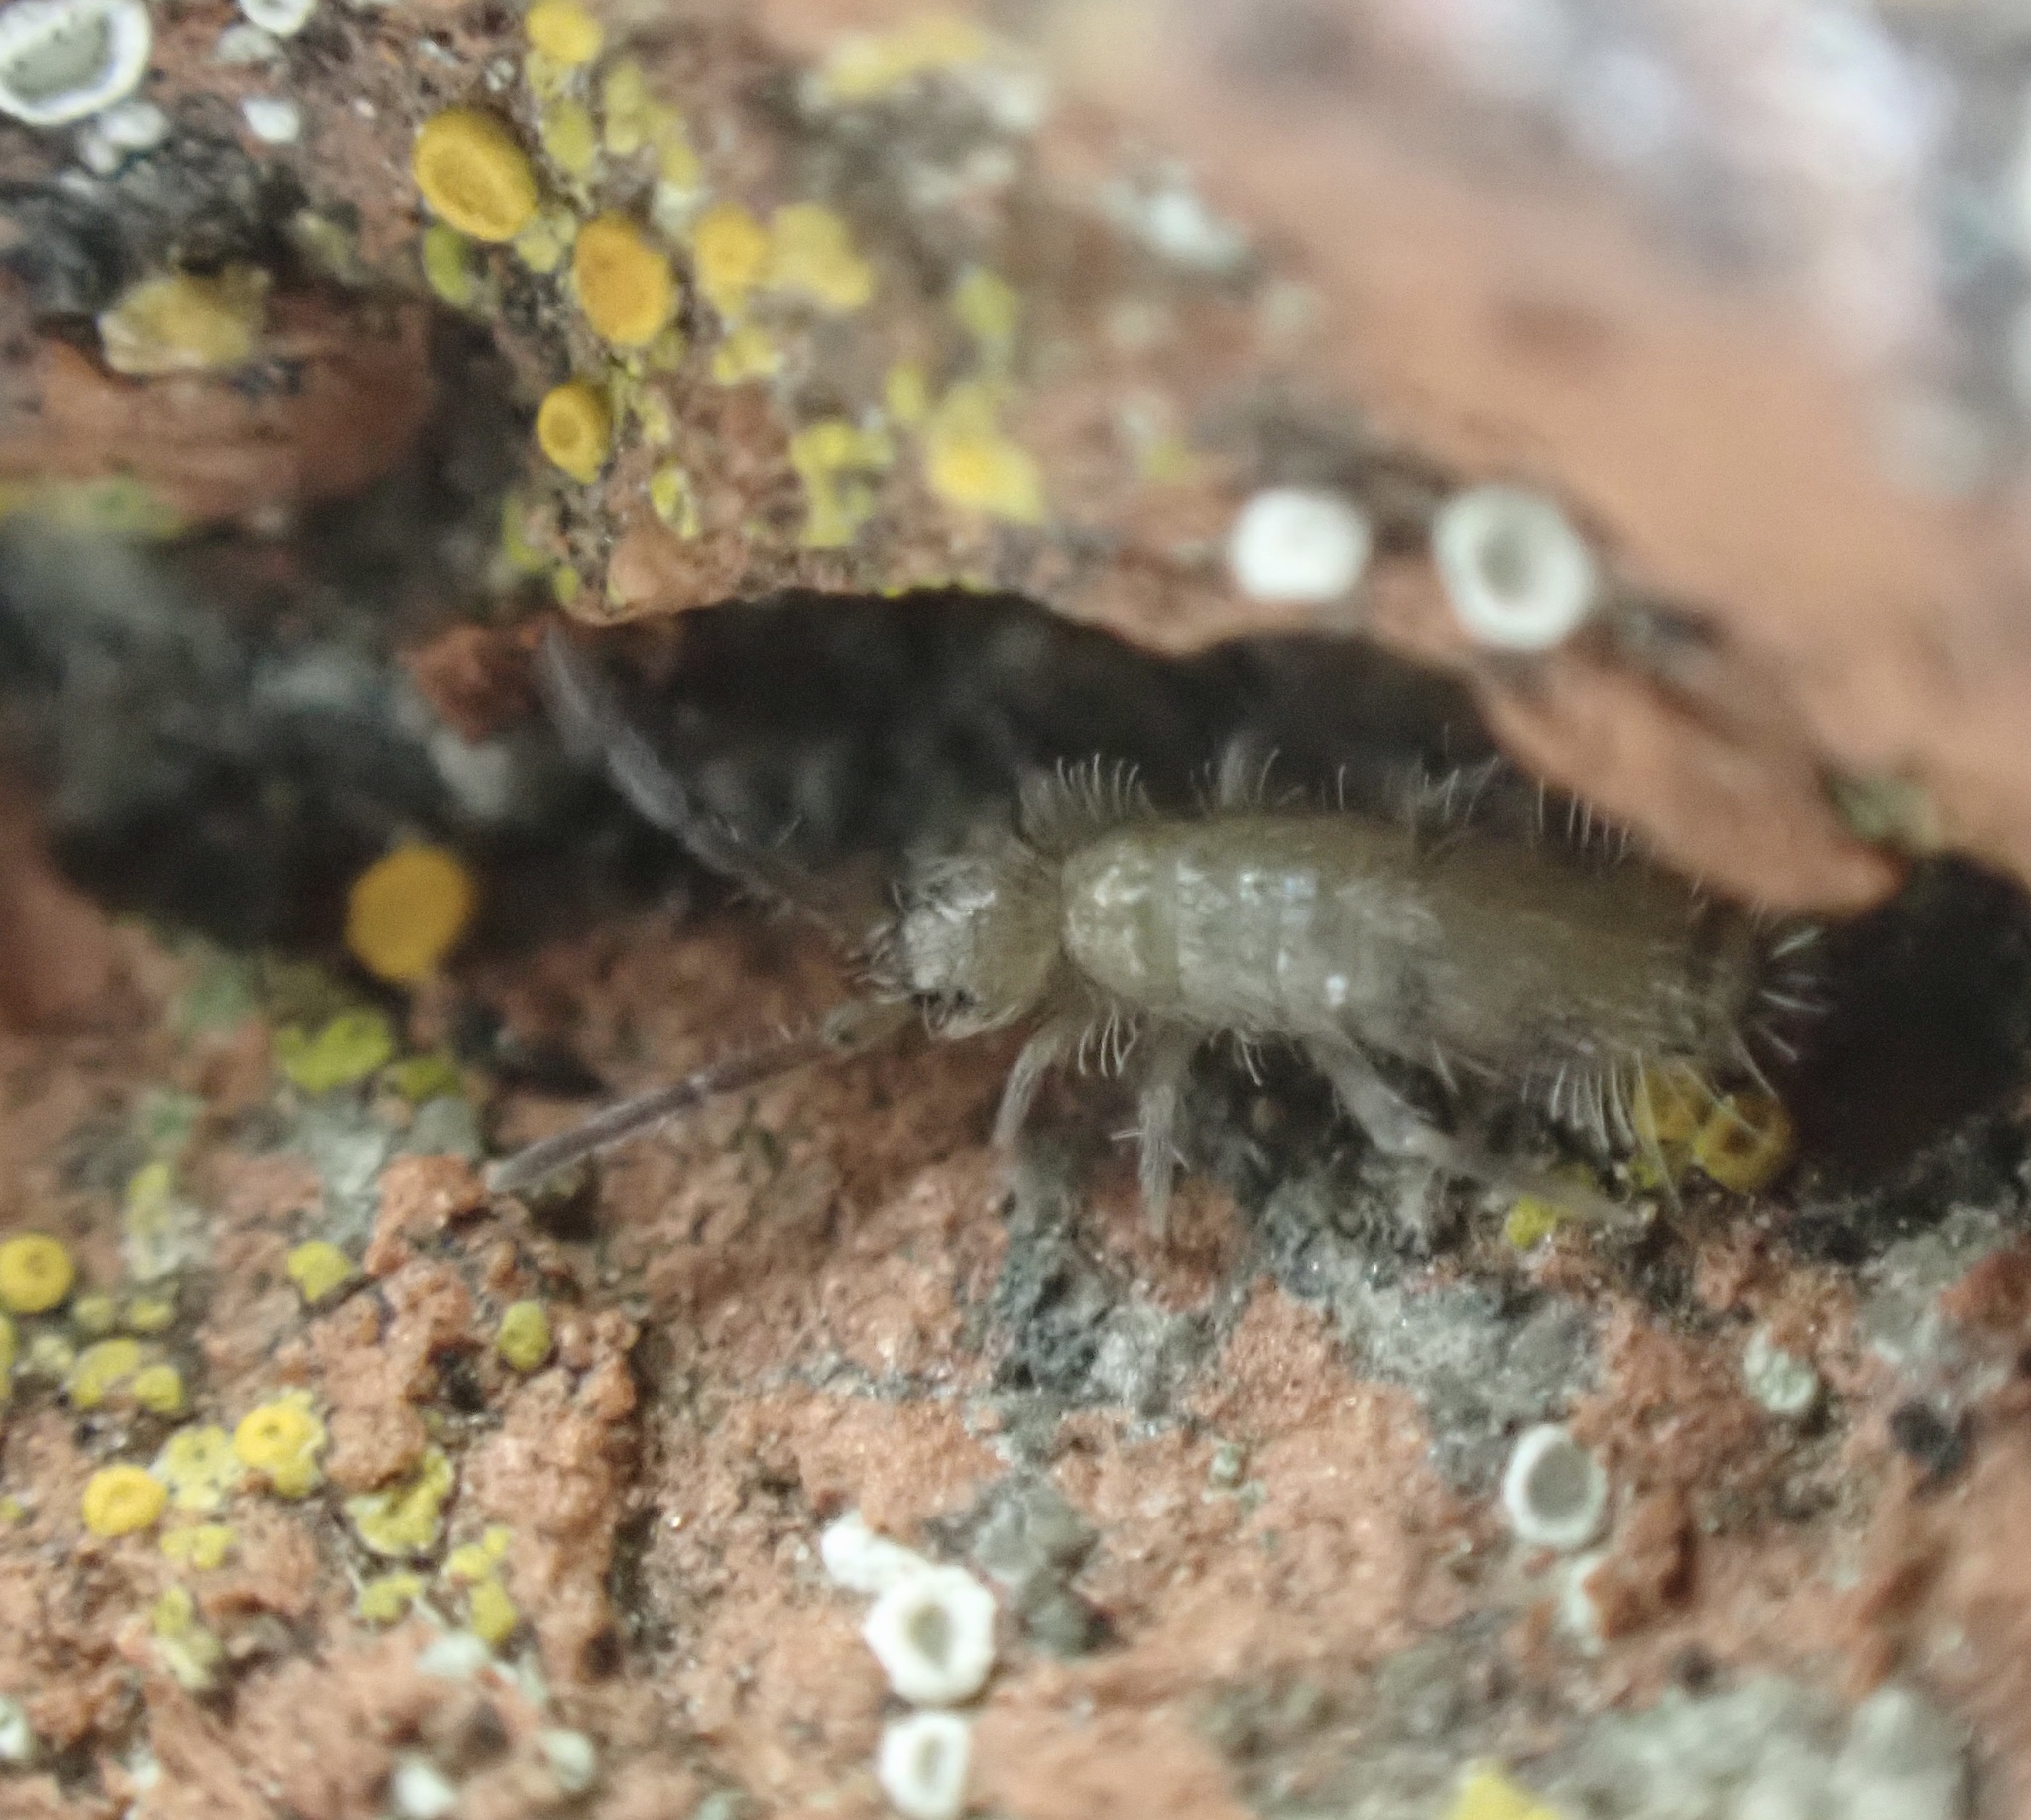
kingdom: Animalia
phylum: Arthropoda
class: Collembola
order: Entomobryomorpha
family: Entomobryidae
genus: Willowsia
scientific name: Willowsia nigromaculata
